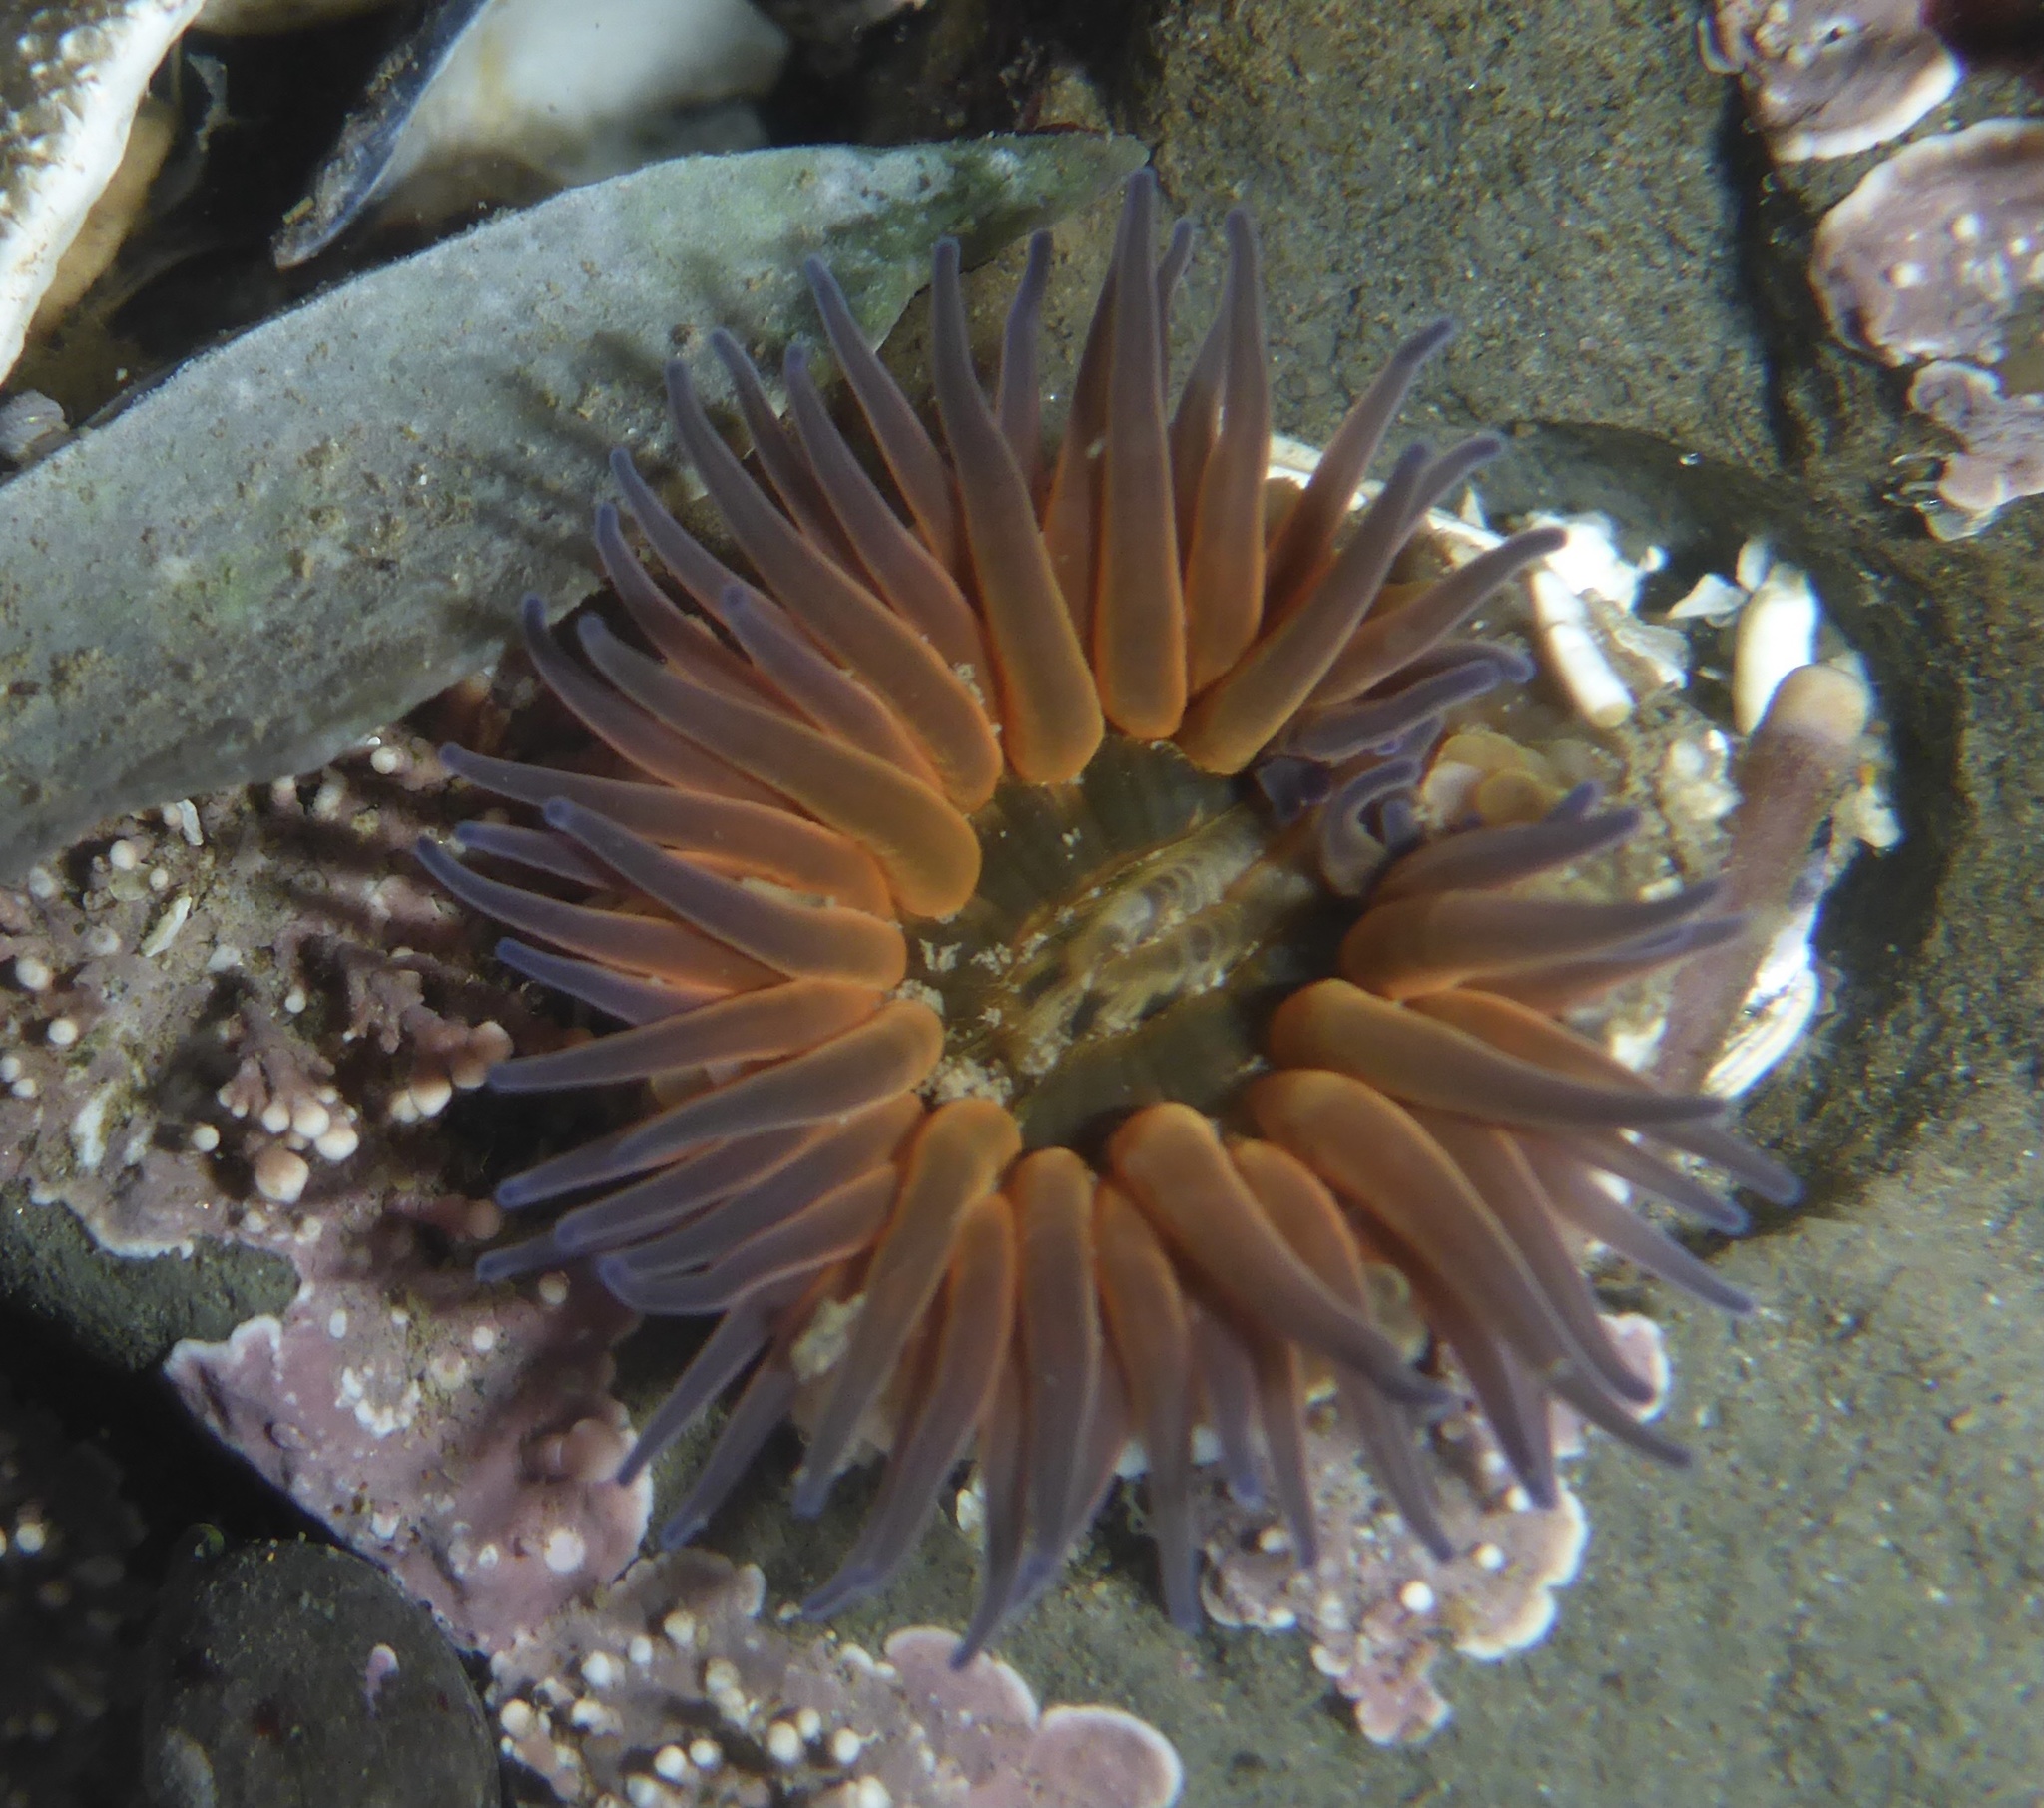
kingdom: Animalia
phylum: Cnidaria
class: Anthozoa
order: Actiniaria
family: Actiniidae
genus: Anthopleura
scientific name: Anthopleura artemisia
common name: Buried sea anemone
